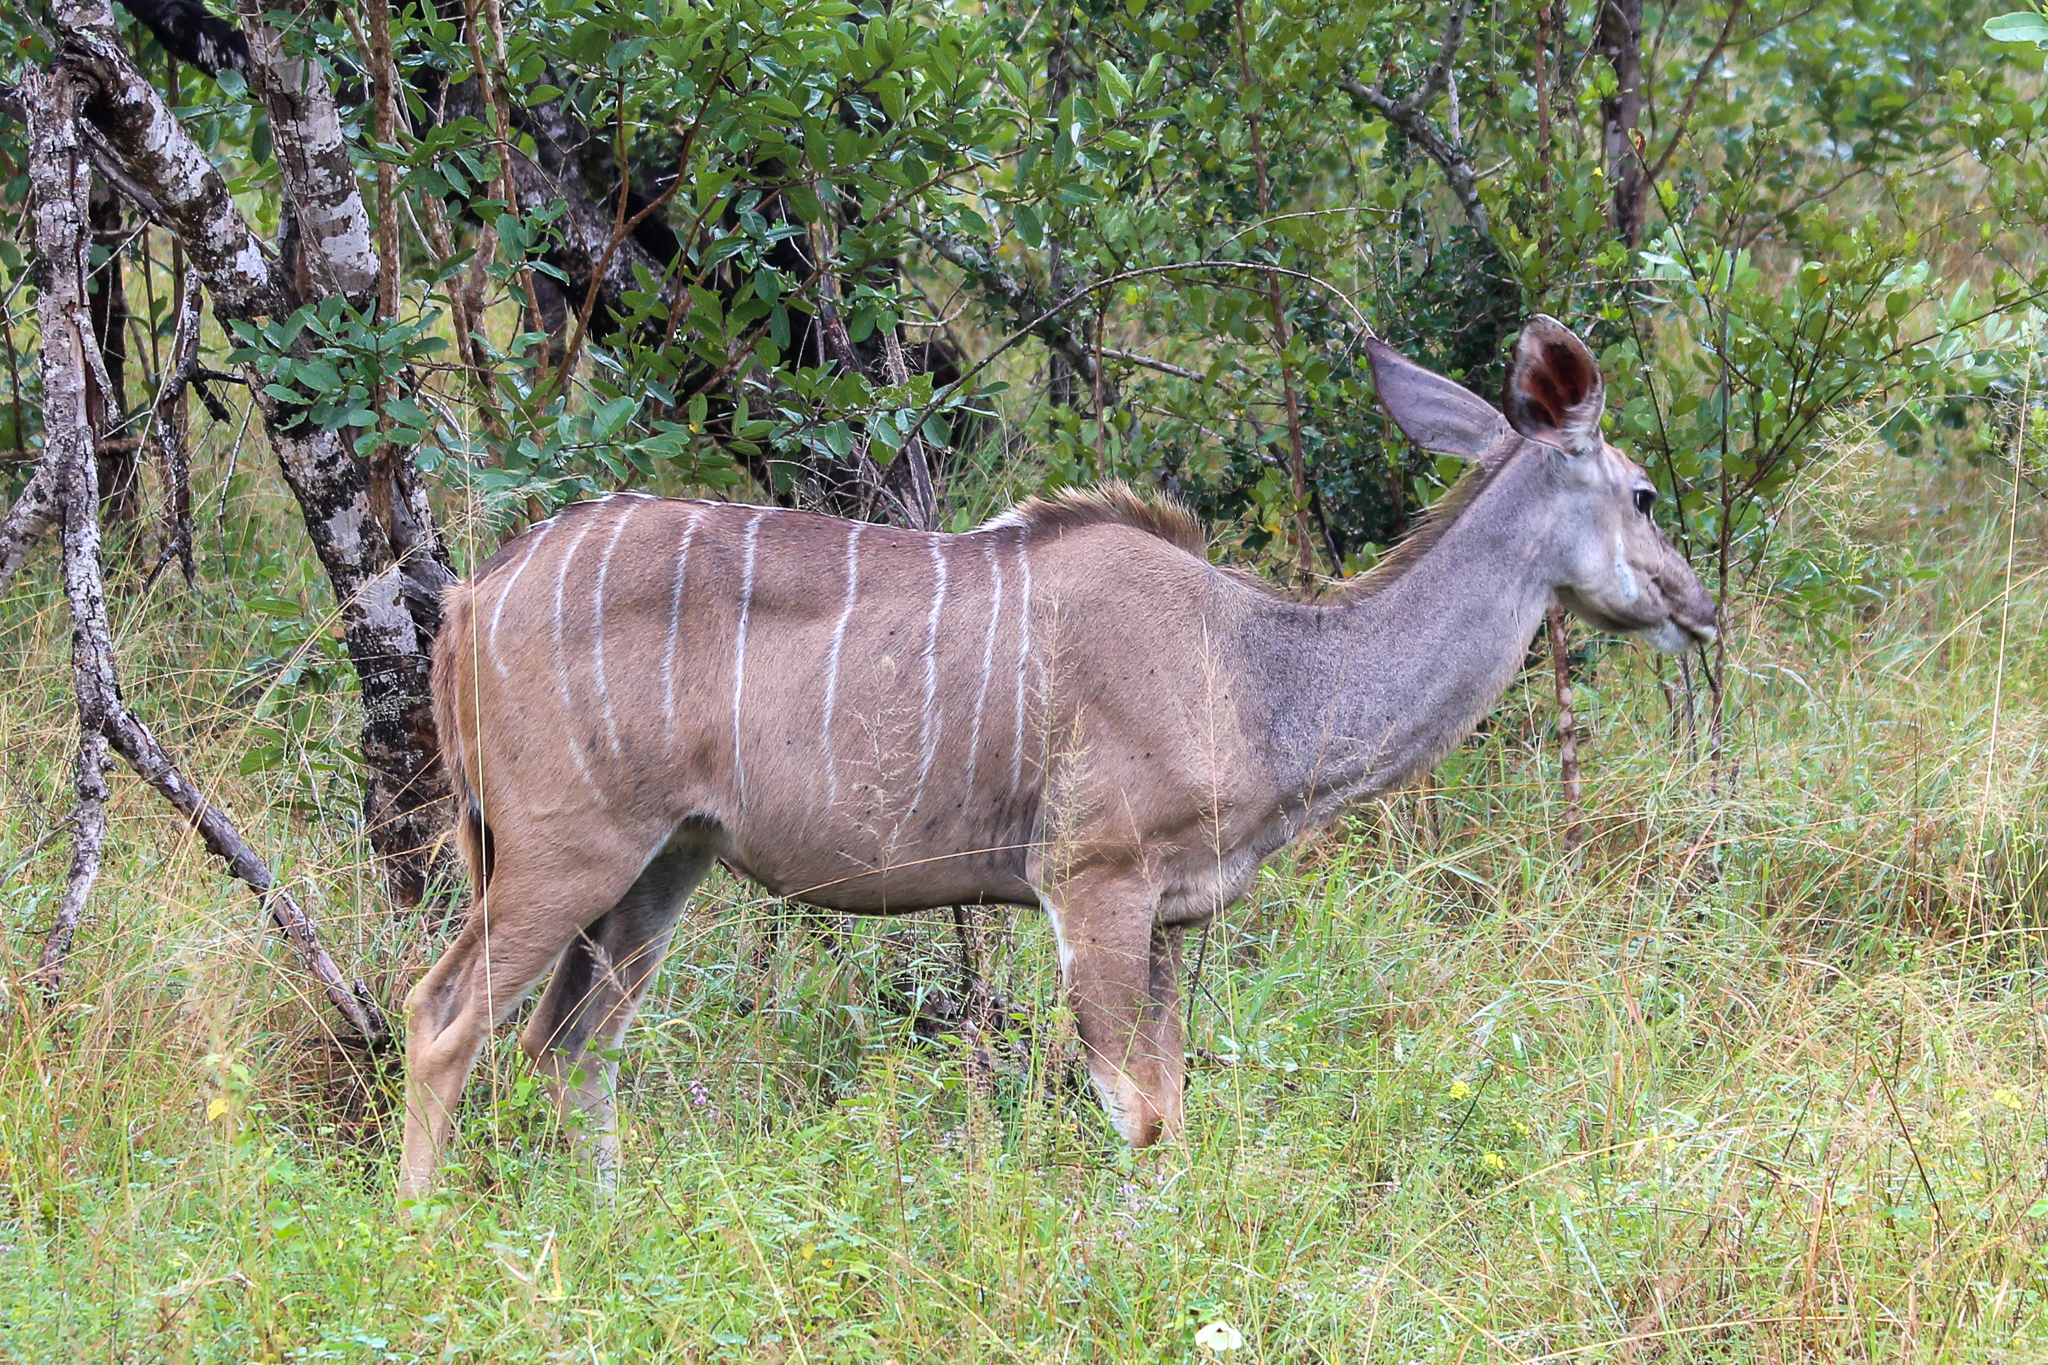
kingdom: Animalia
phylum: Chordata
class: Mammalia
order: Artiodactyla
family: Bovidae
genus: Tragelaphus
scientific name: Tragelaphus strepsiceros
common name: Greater kudu
